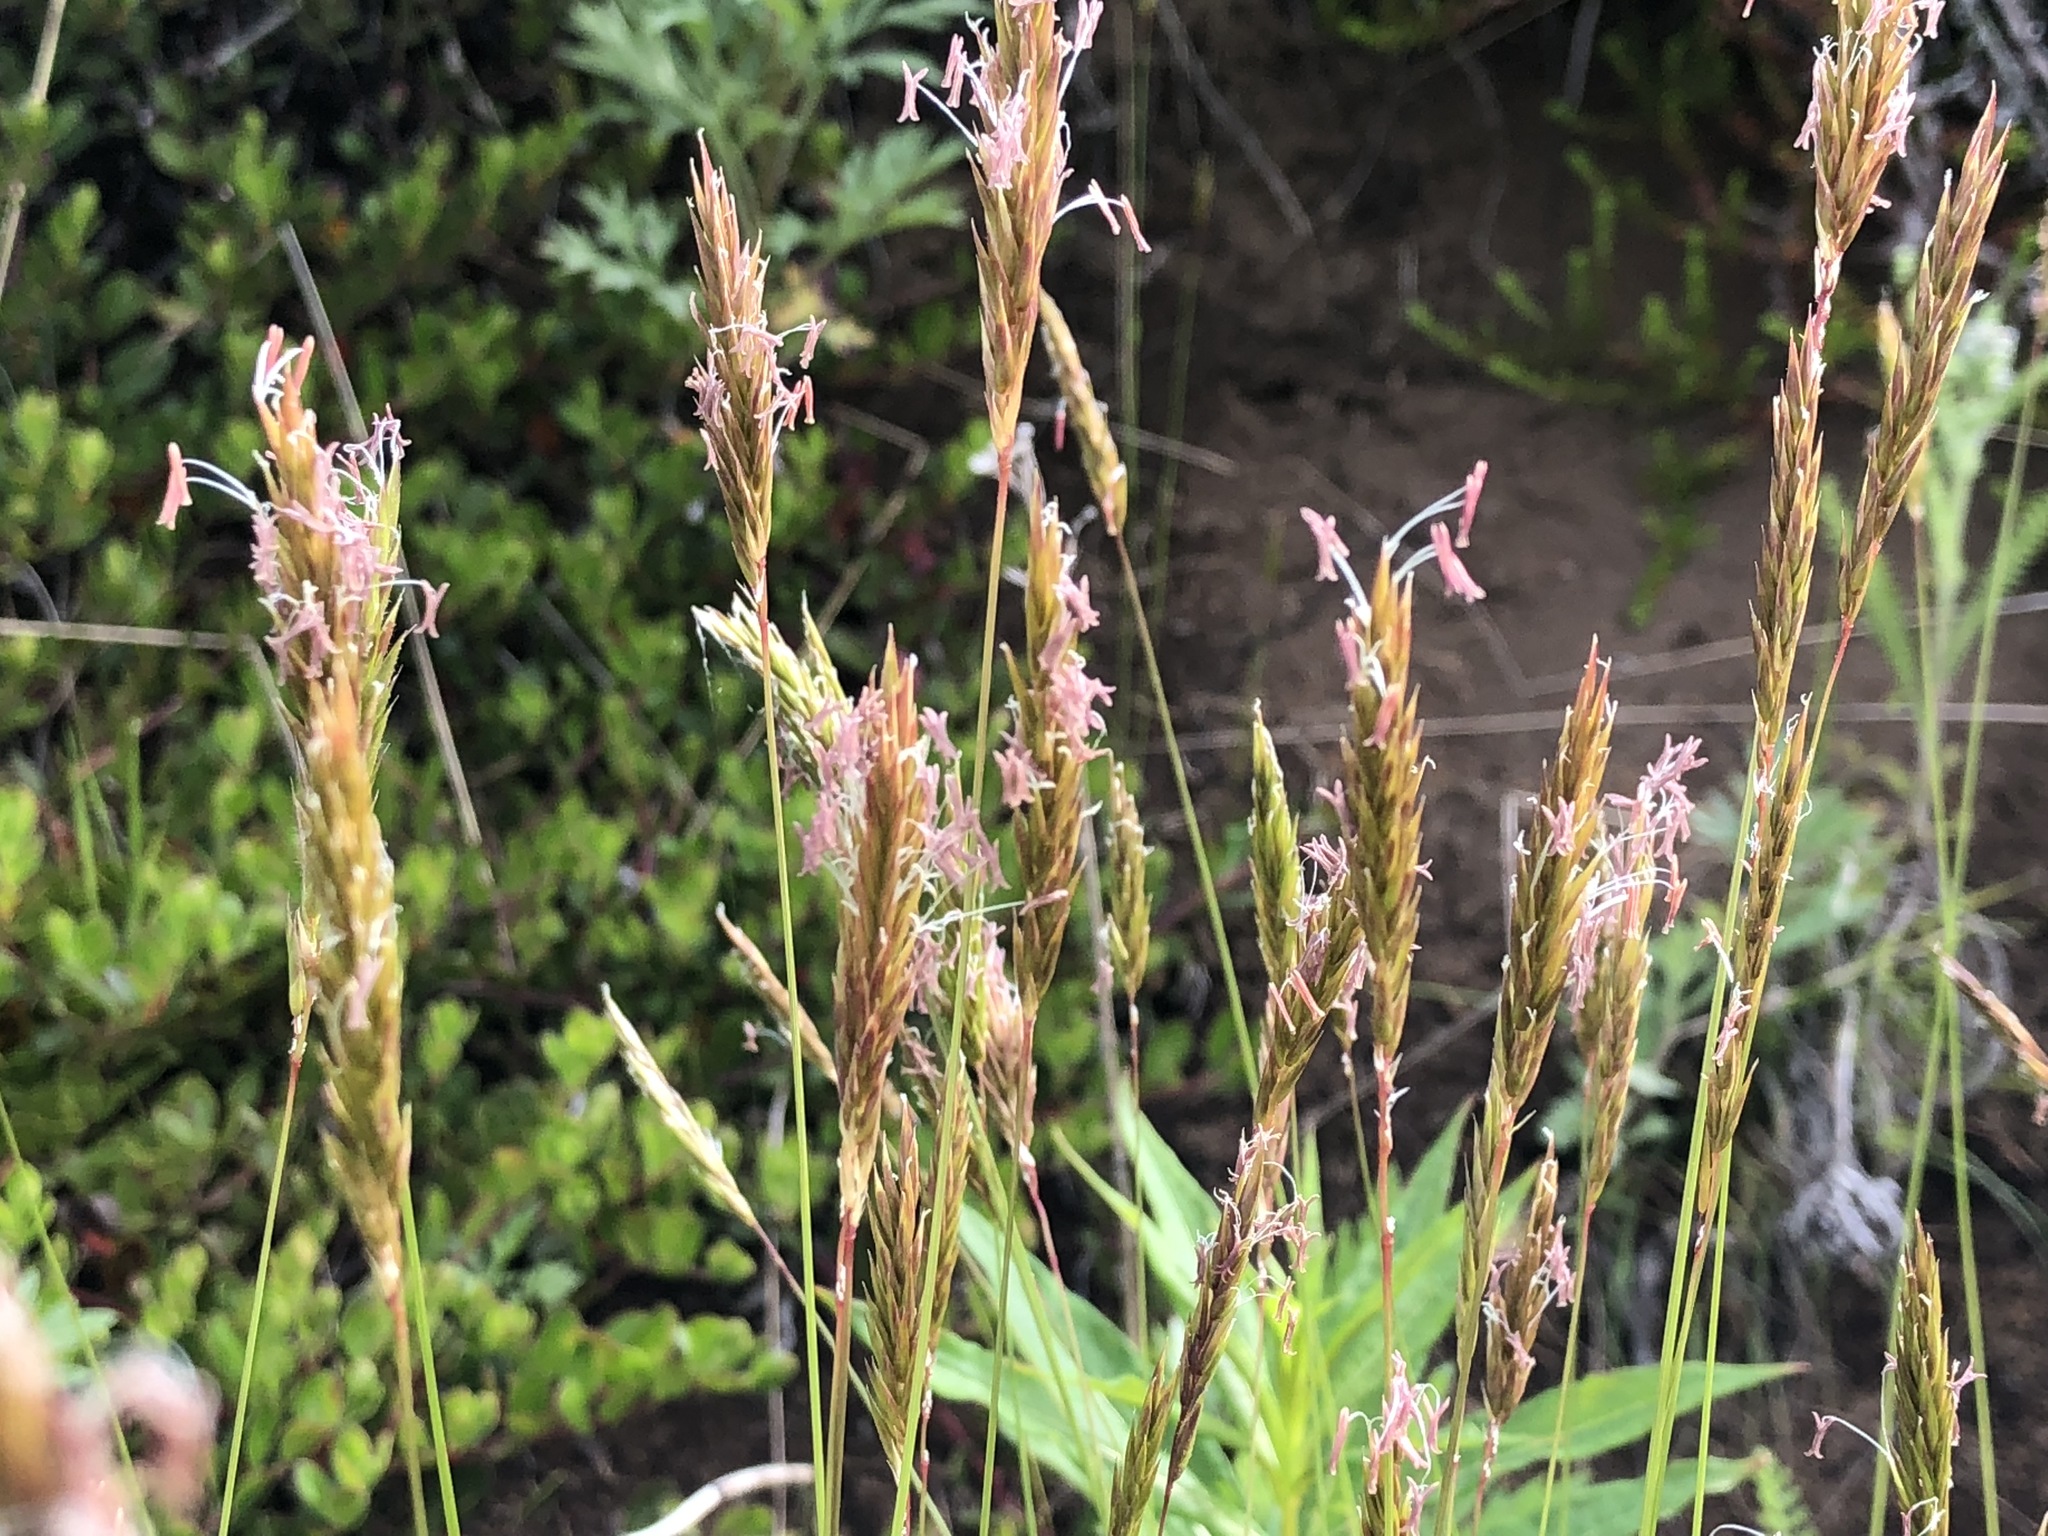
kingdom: Plantae
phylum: Tracheophyta
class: Liliopsida
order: Poales
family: Poaceae
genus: Anthoxanthum
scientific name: Anthoxanthum odoratum
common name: Sweet vernalgrass
